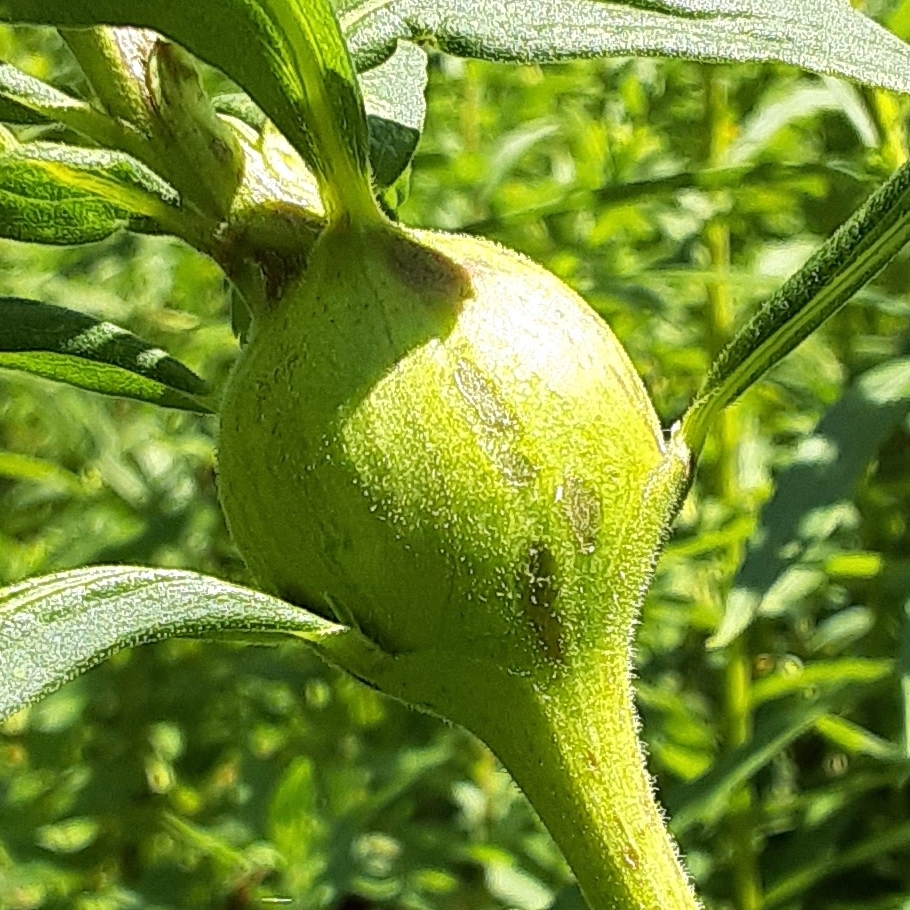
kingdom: Animalia
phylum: Arthropoda
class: Insecta
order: Diptera
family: Tephritidae
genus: Eurosta
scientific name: Eurosta solidaginis
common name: Goldenrod gall fly
